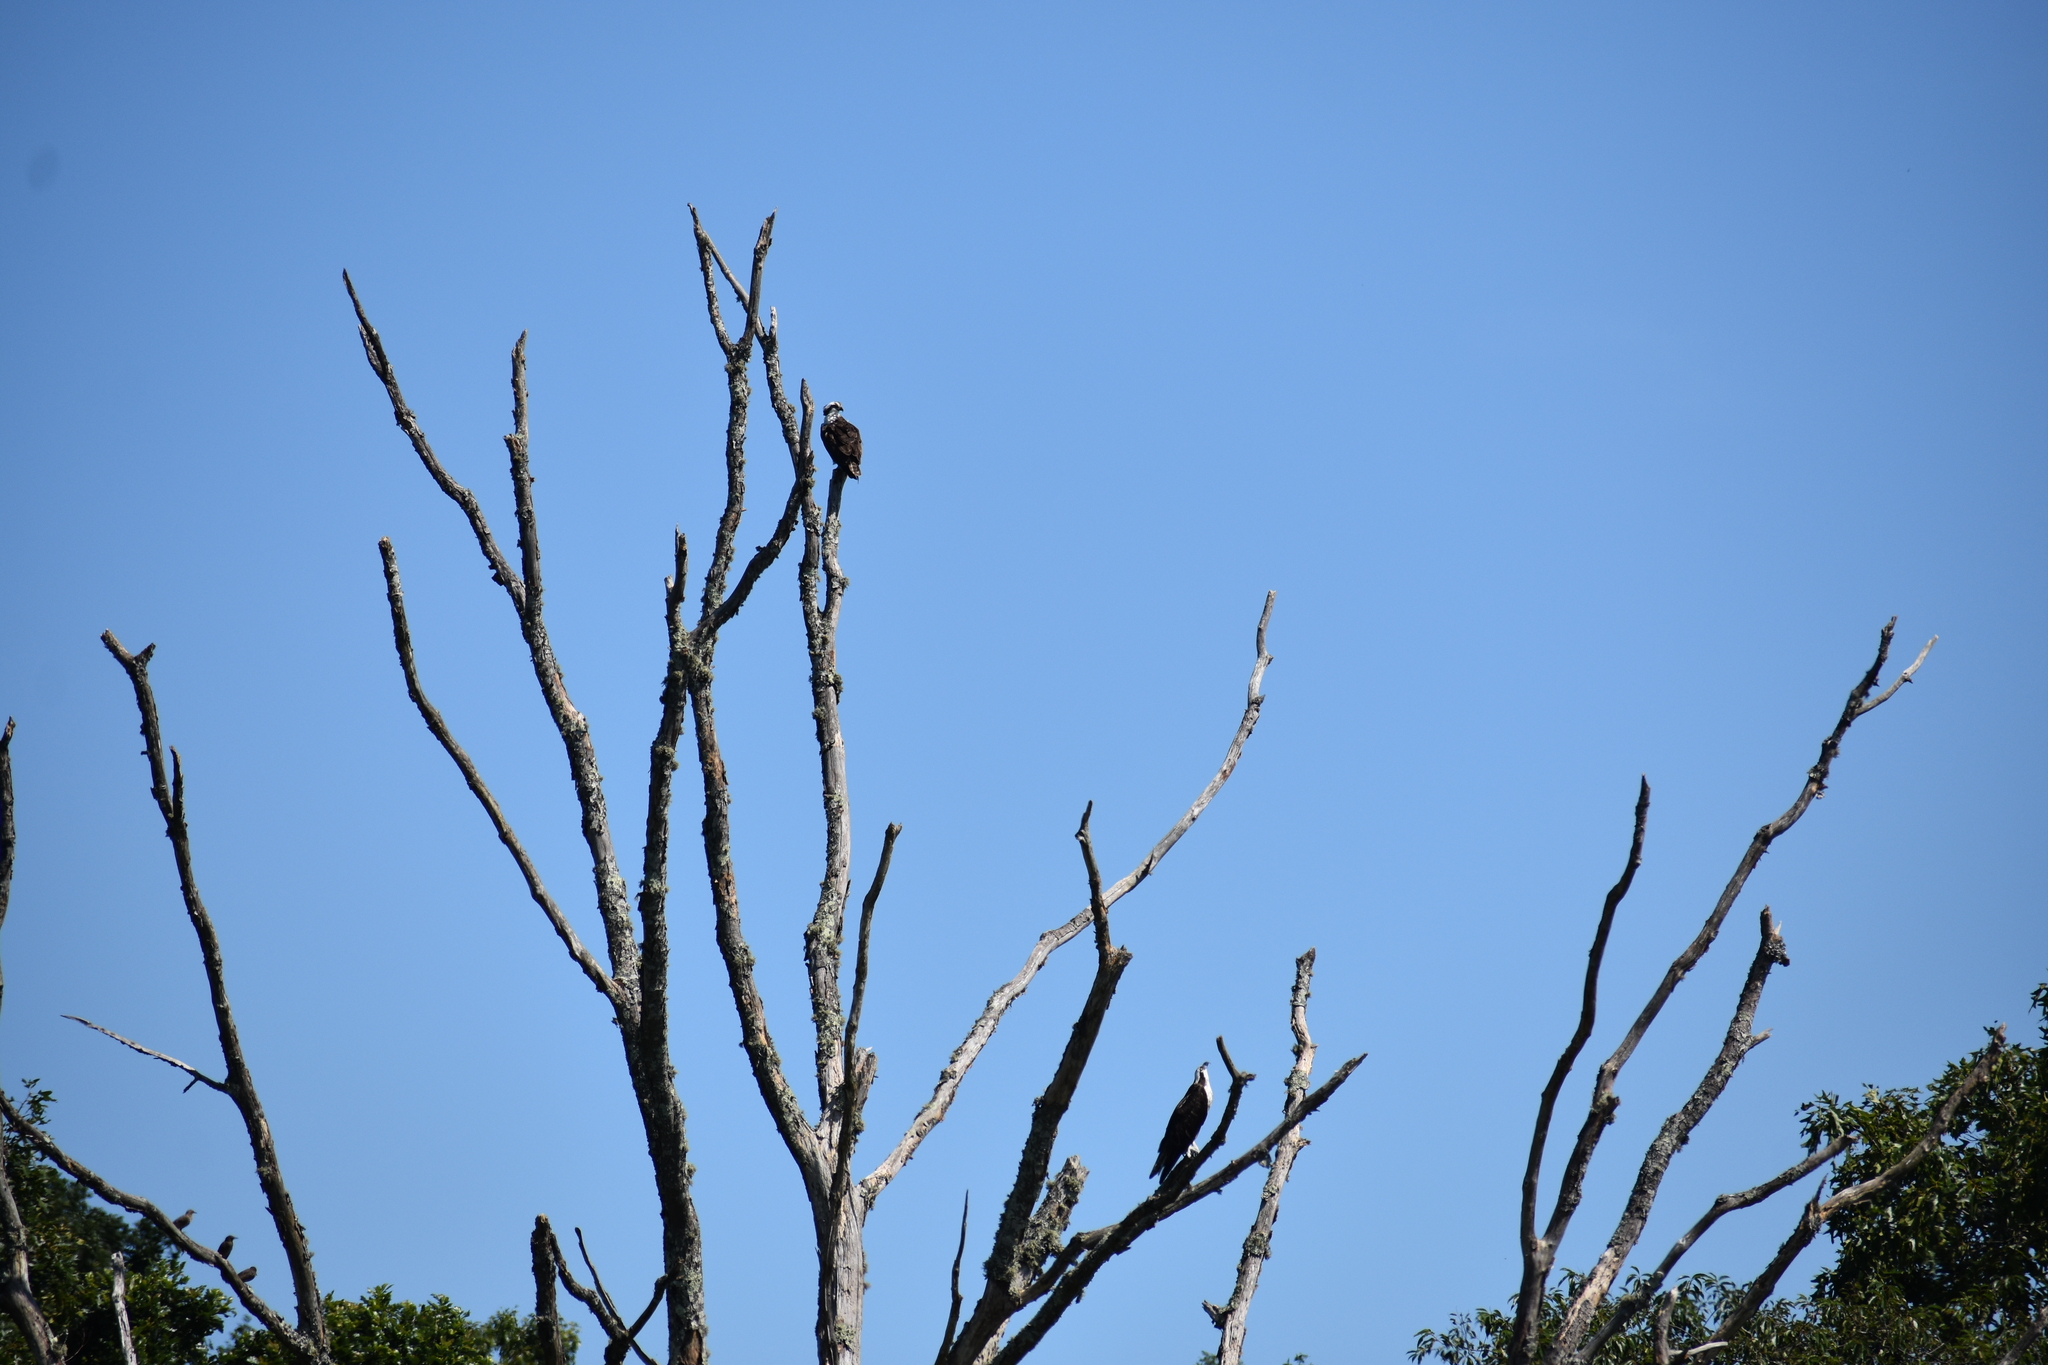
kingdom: Animalia
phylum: Chordata
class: Aves
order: Accipitriformes
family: Pandionidae
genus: Pandion
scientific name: Pandion haliaetus
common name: Osprey
